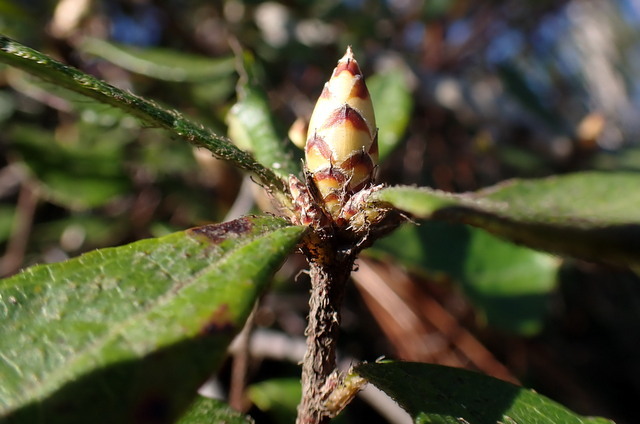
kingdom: Plantae
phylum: Tracheophyta
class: Magnoliopsida
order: Ericales
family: Ericaceae
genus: Rhododendron
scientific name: Rhododendron serrulatum
